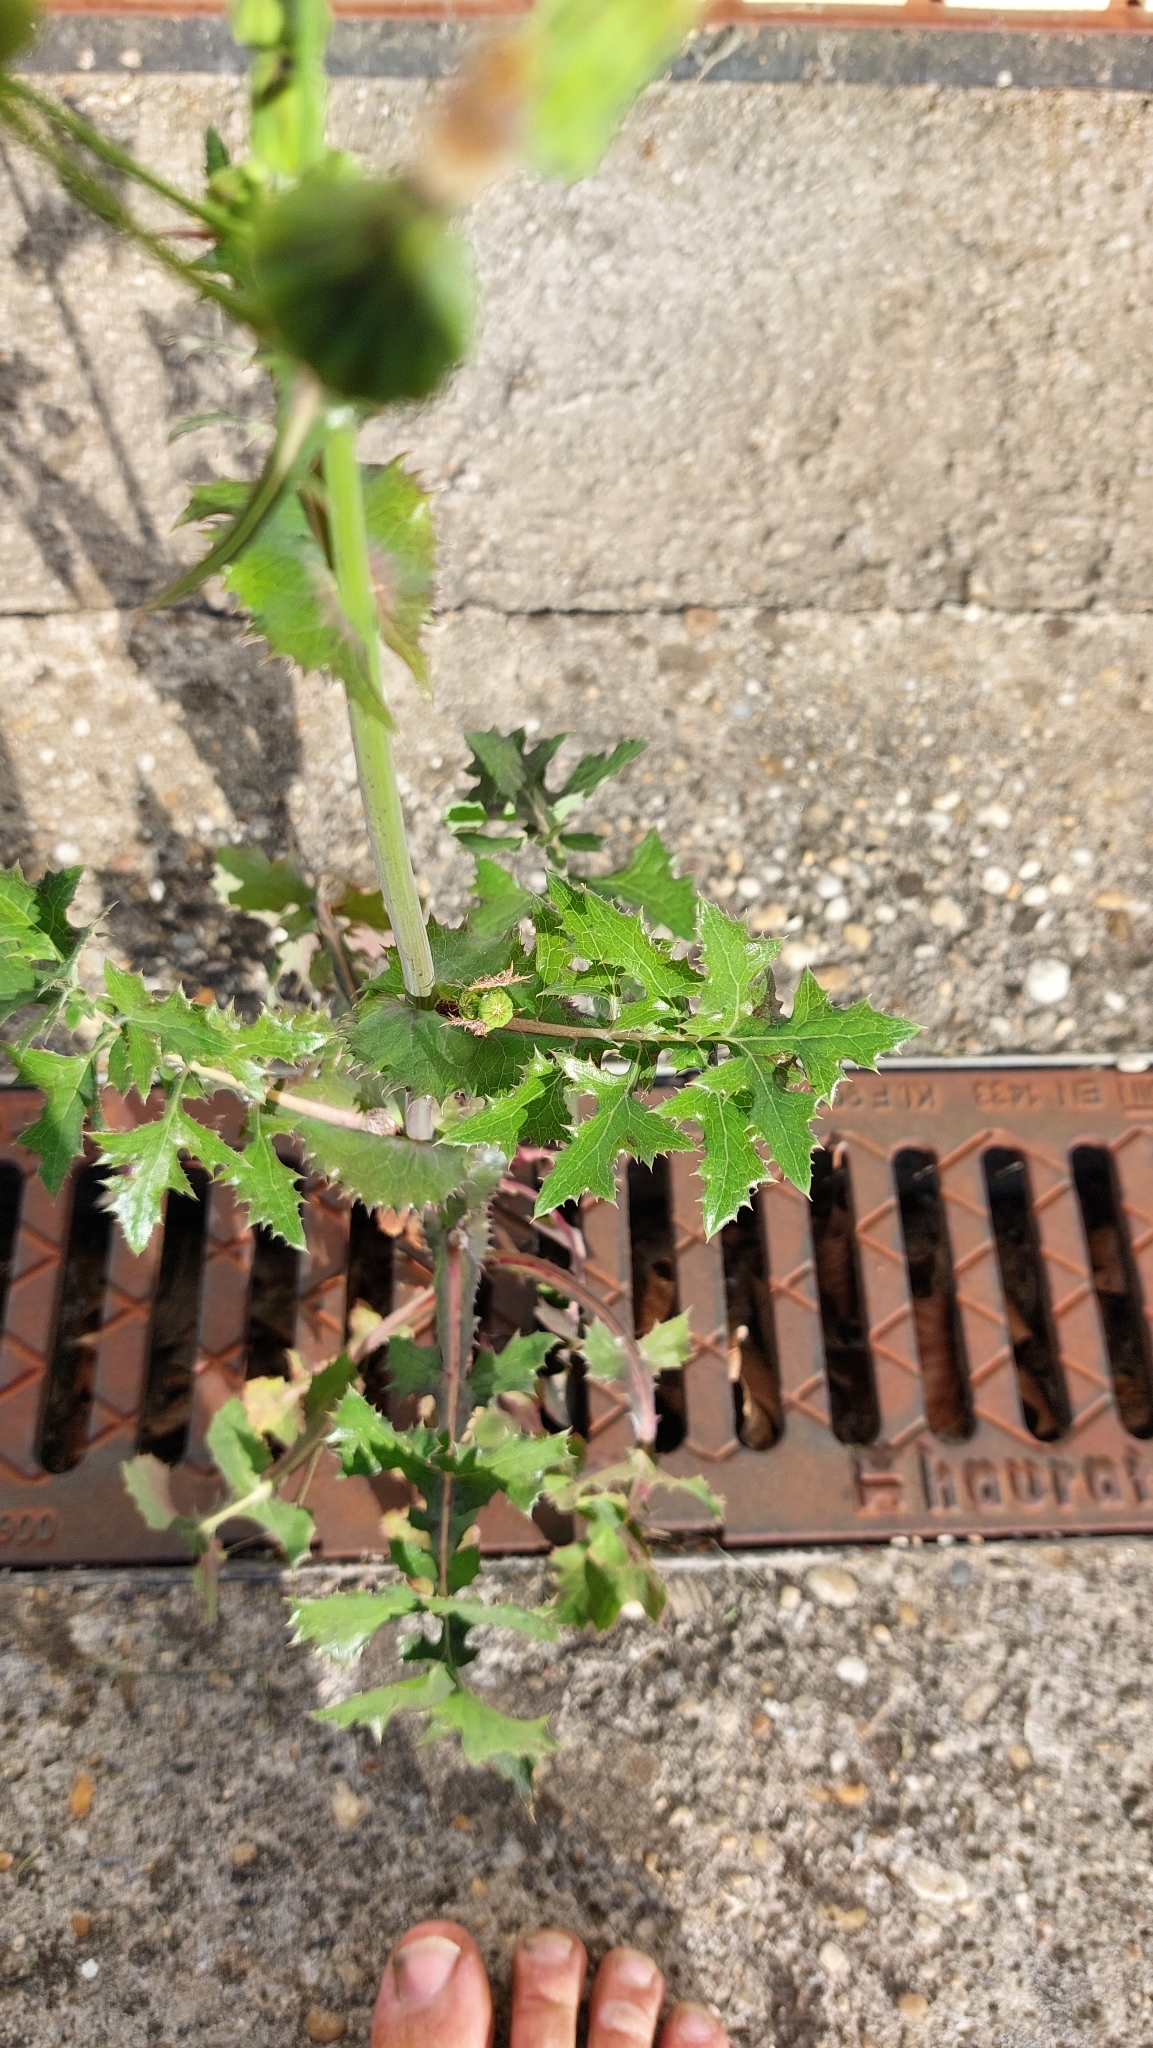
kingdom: Plantae
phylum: Tracheophyta
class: Magnoliopsida
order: Asterales
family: Asteraceae
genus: Sonchus
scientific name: Sonchus asper
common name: Prickly sow-thistle
